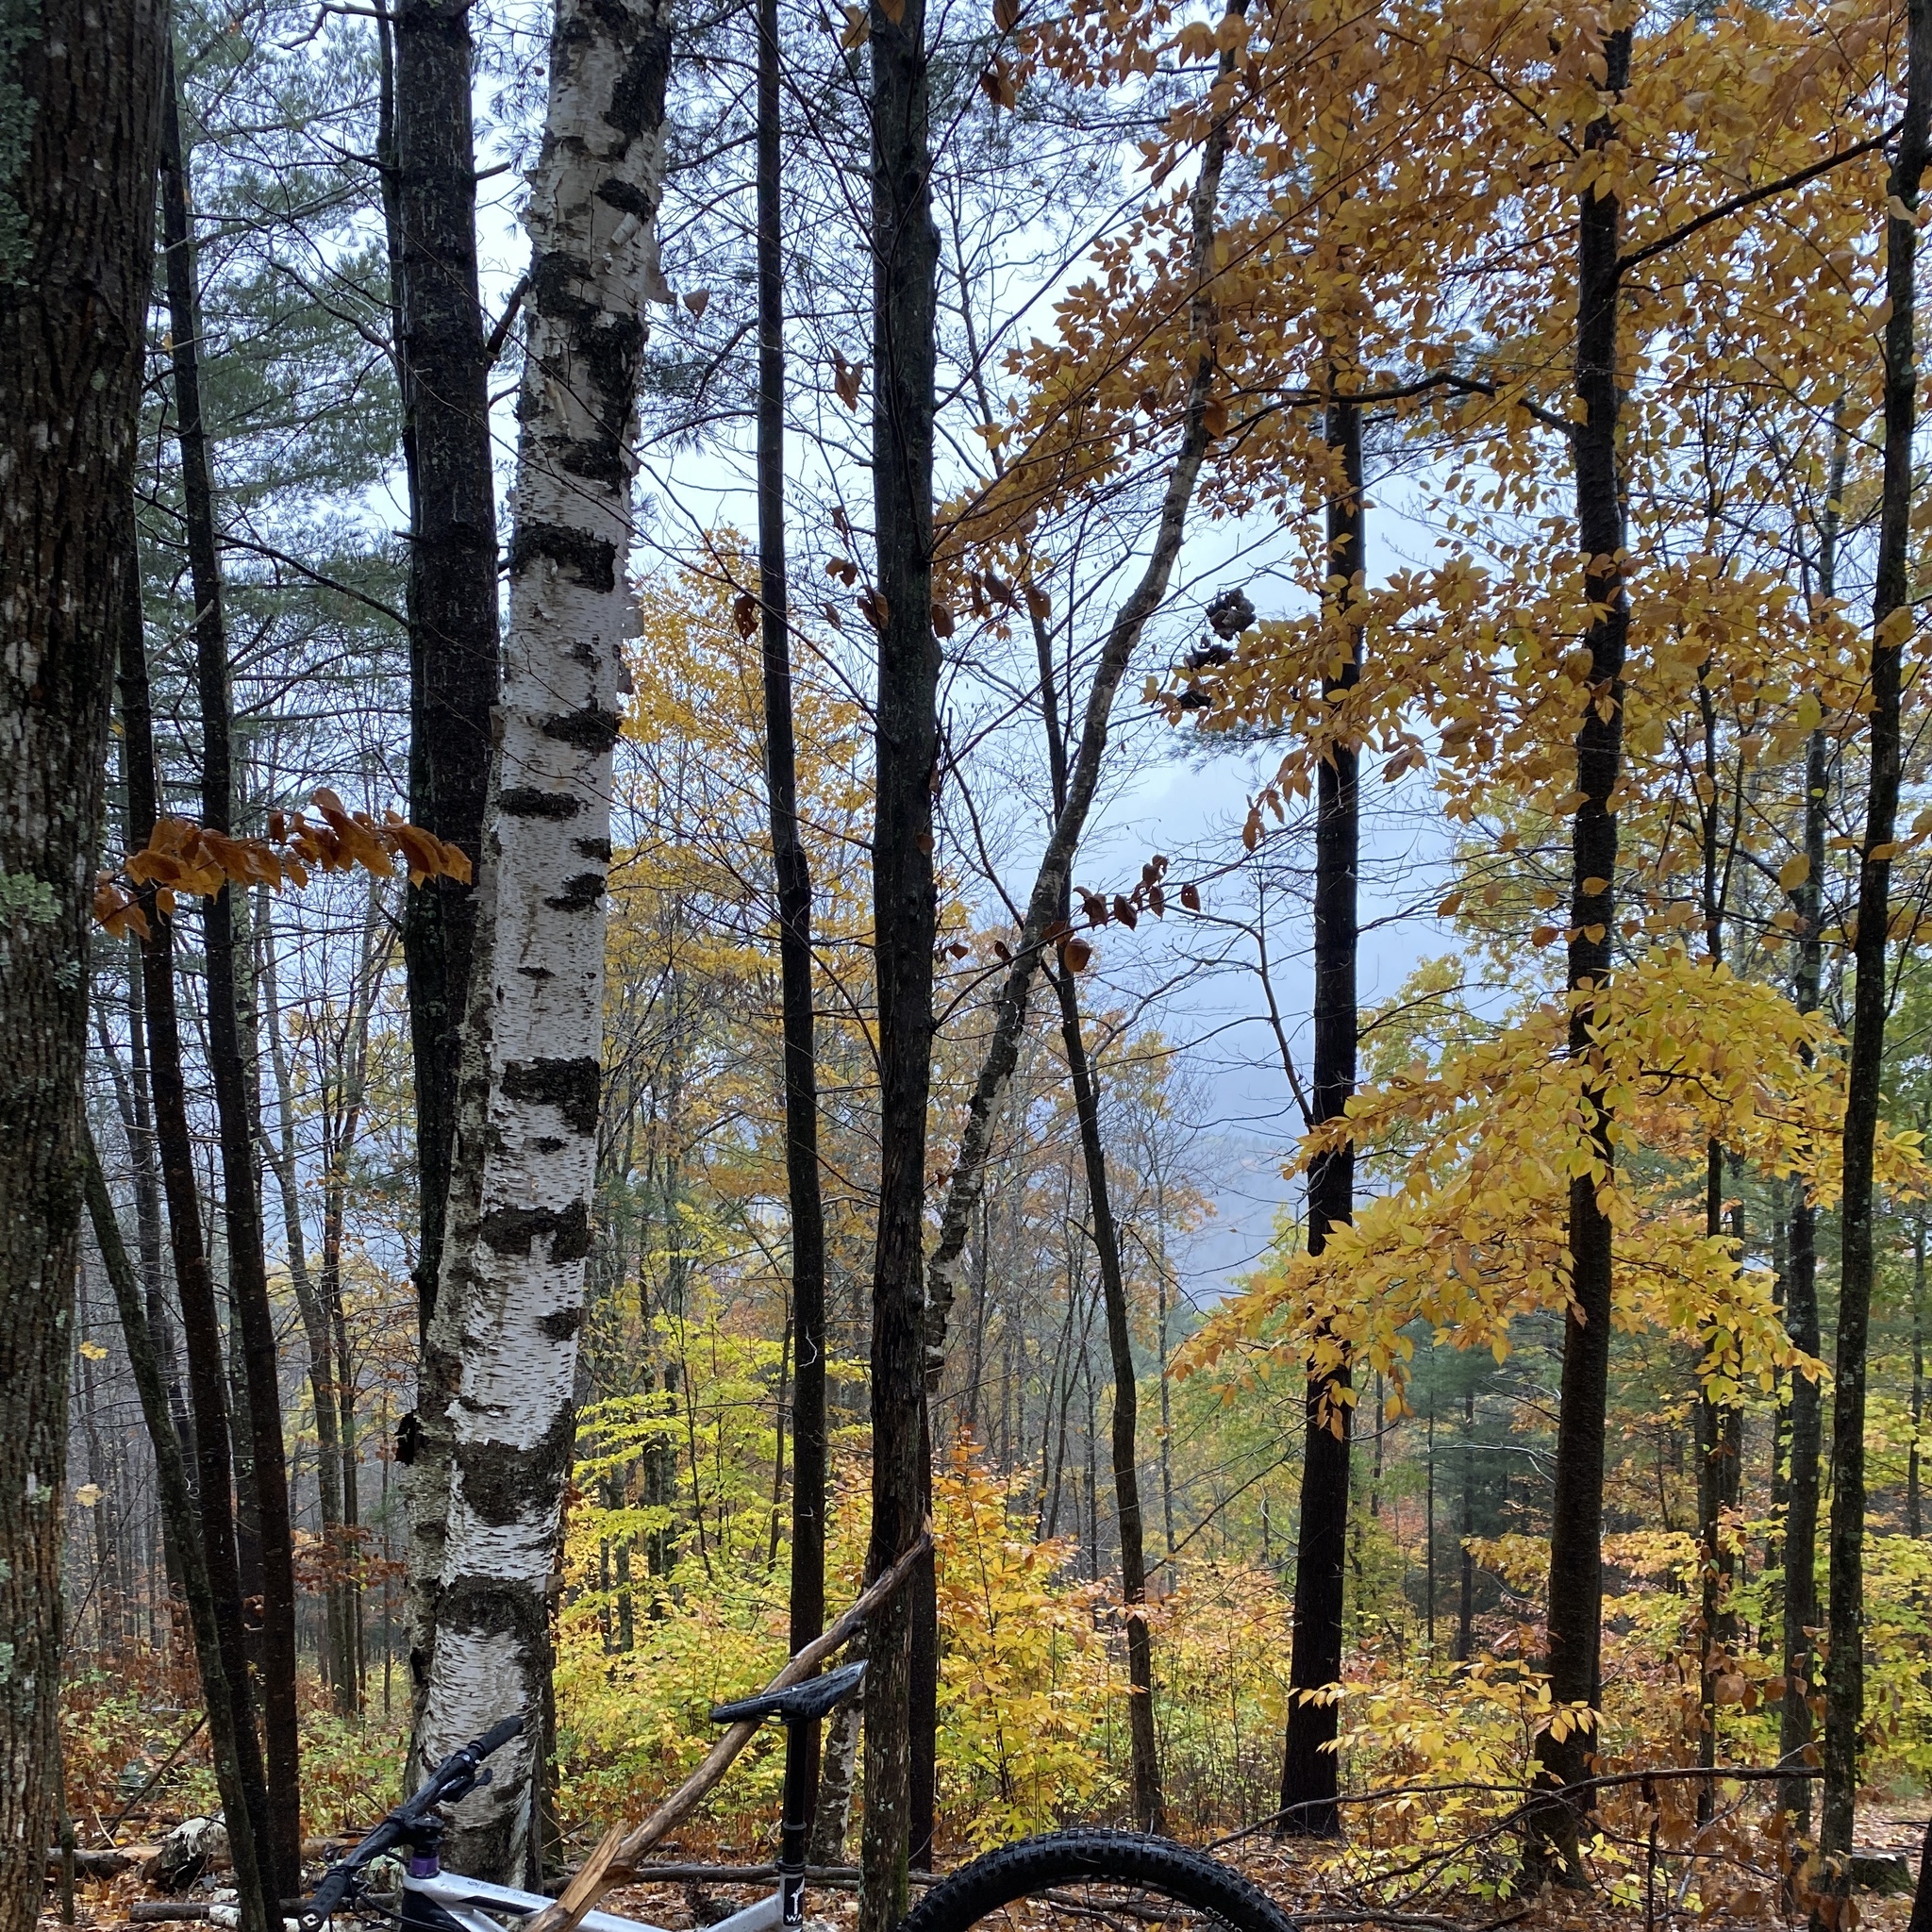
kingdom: Plantae
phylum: Tracheophyta
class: Magnoliopsida
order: Fagales
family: Betulaceae
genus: Betula
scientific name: Betula papyrifera
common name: Paper birch
